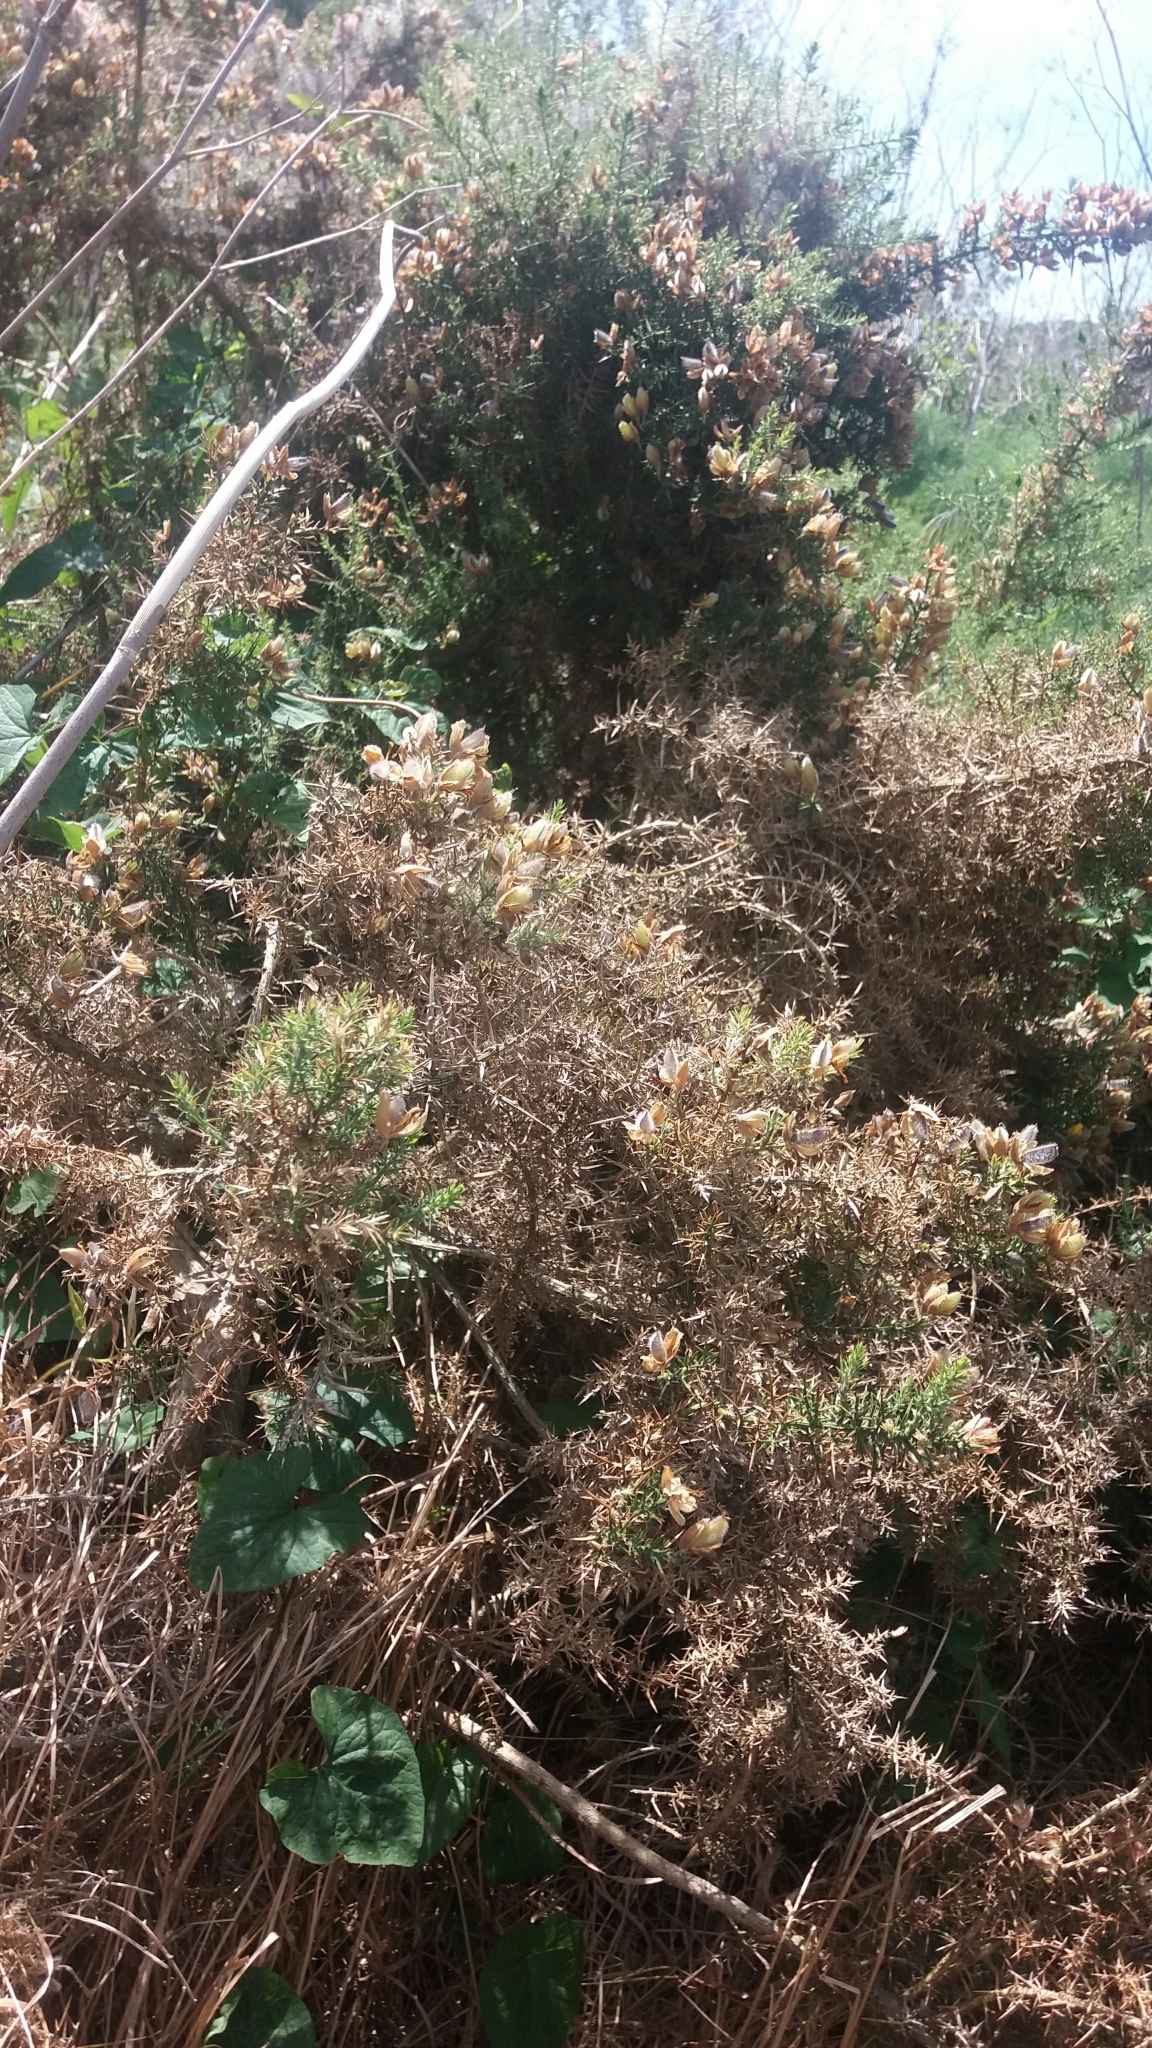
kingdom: Plantae
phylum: Tracheophyta
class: Magnoliopsida
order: Fabales
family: Fabaceae
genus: Ulex
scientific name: Ulex europaeus
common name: Common gorse
